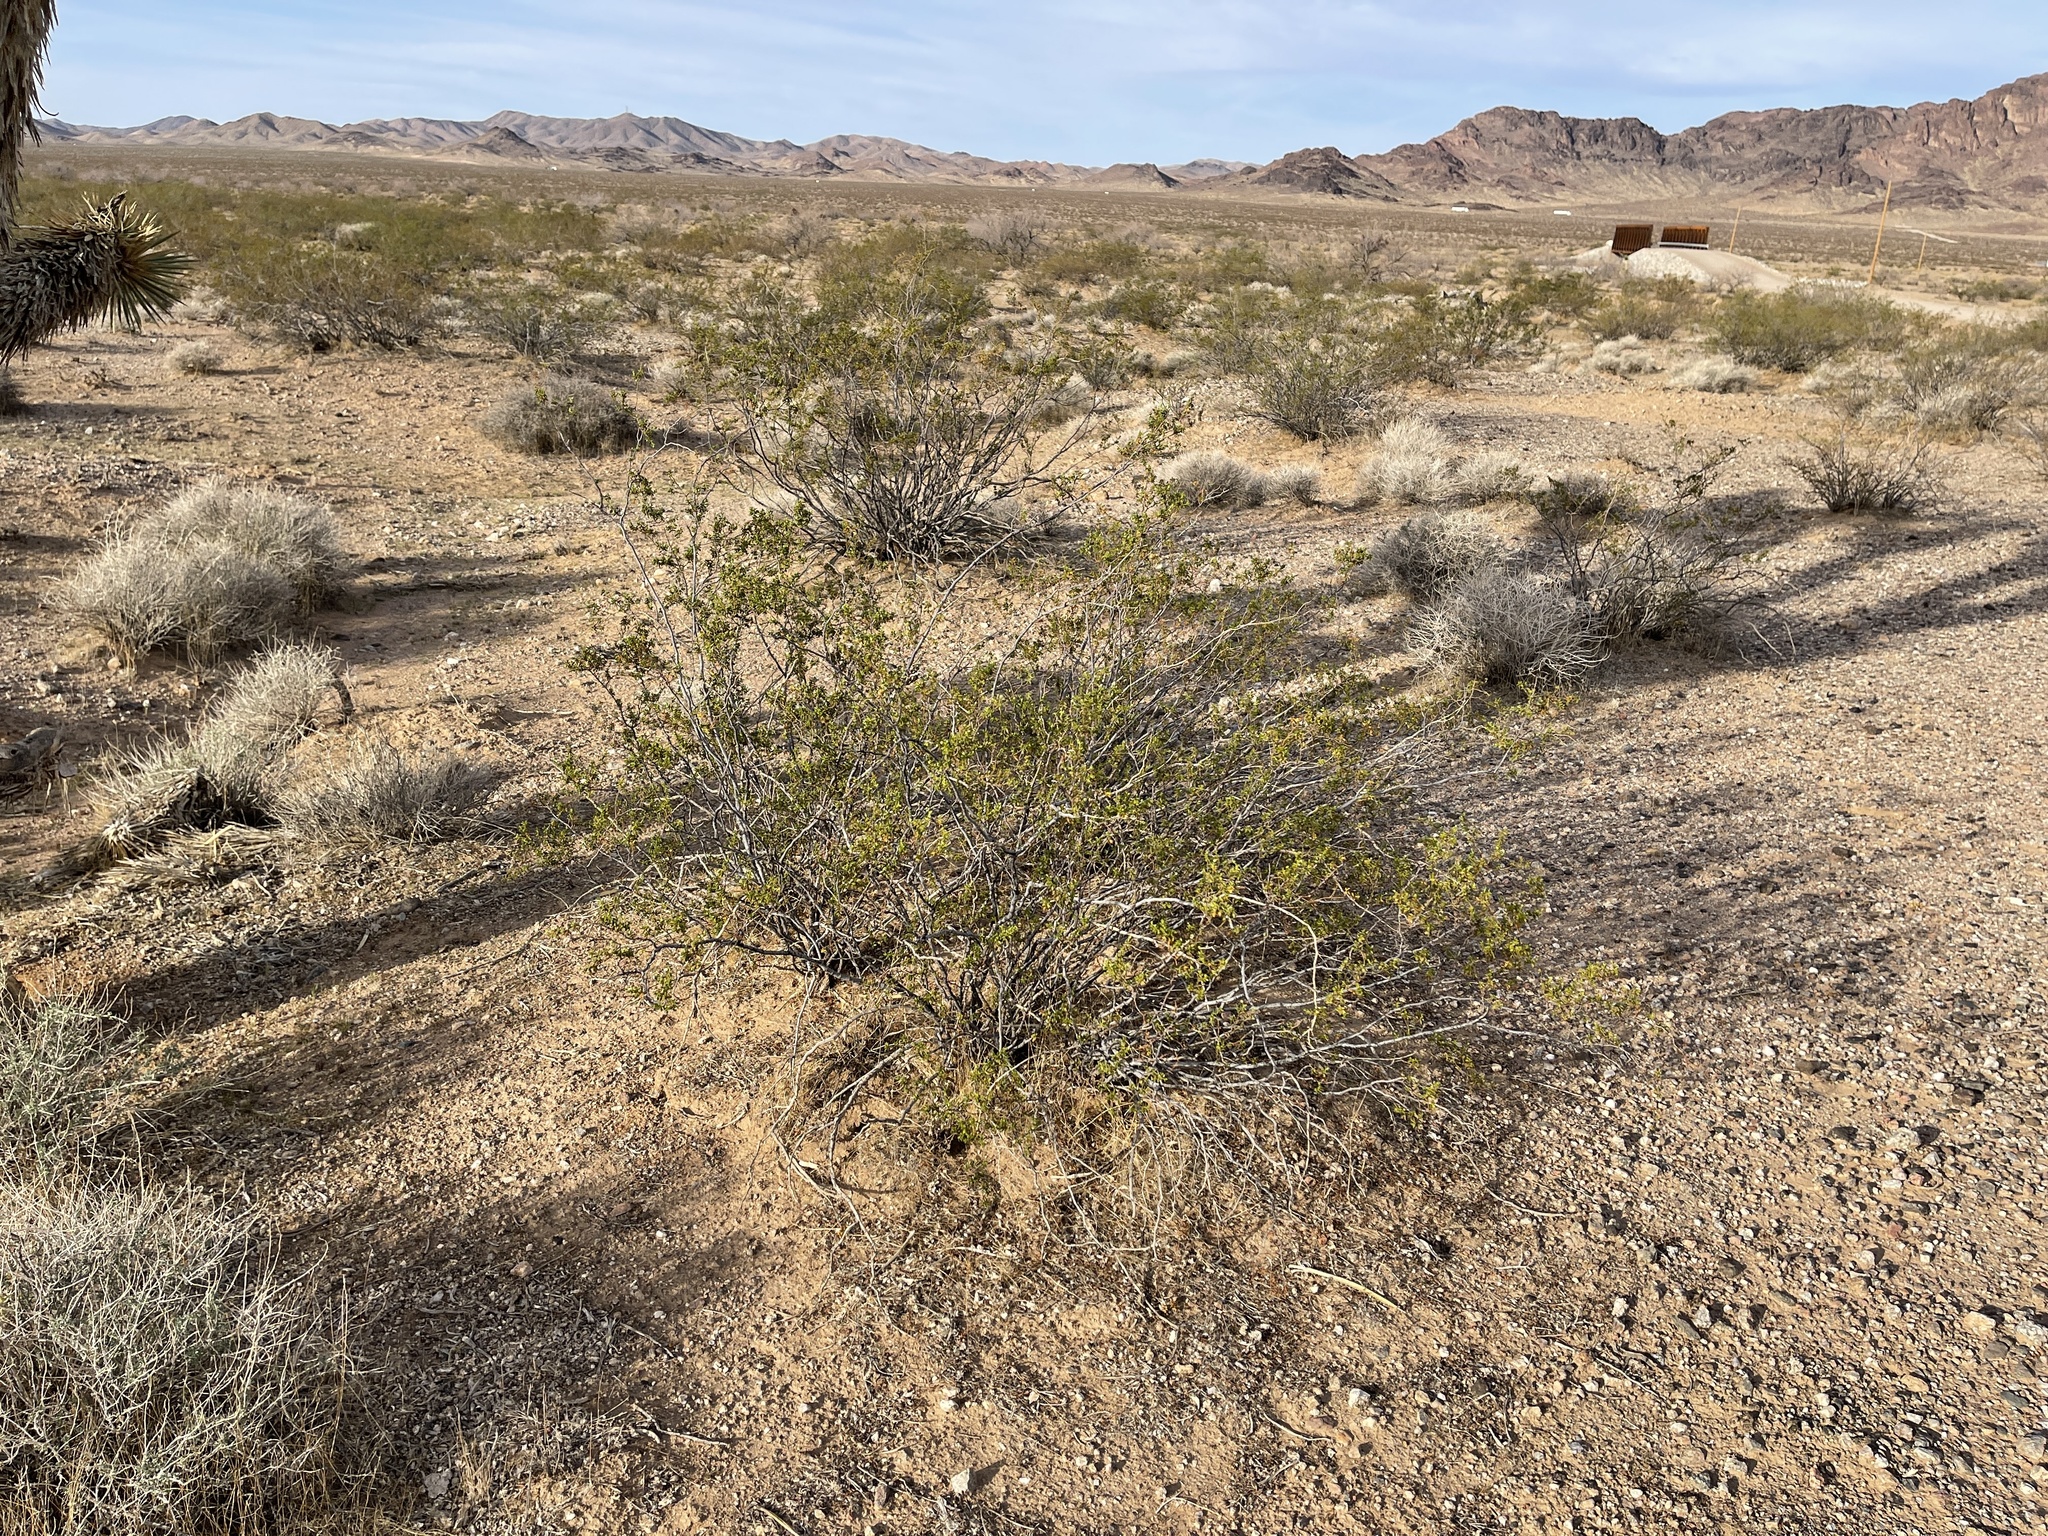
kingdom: Plantae
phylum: Tracheophyta
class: Magnoliopsida
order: Zygophyllales
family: Zygophyllaceae
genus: Larrea
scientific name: Larrea tridentata
